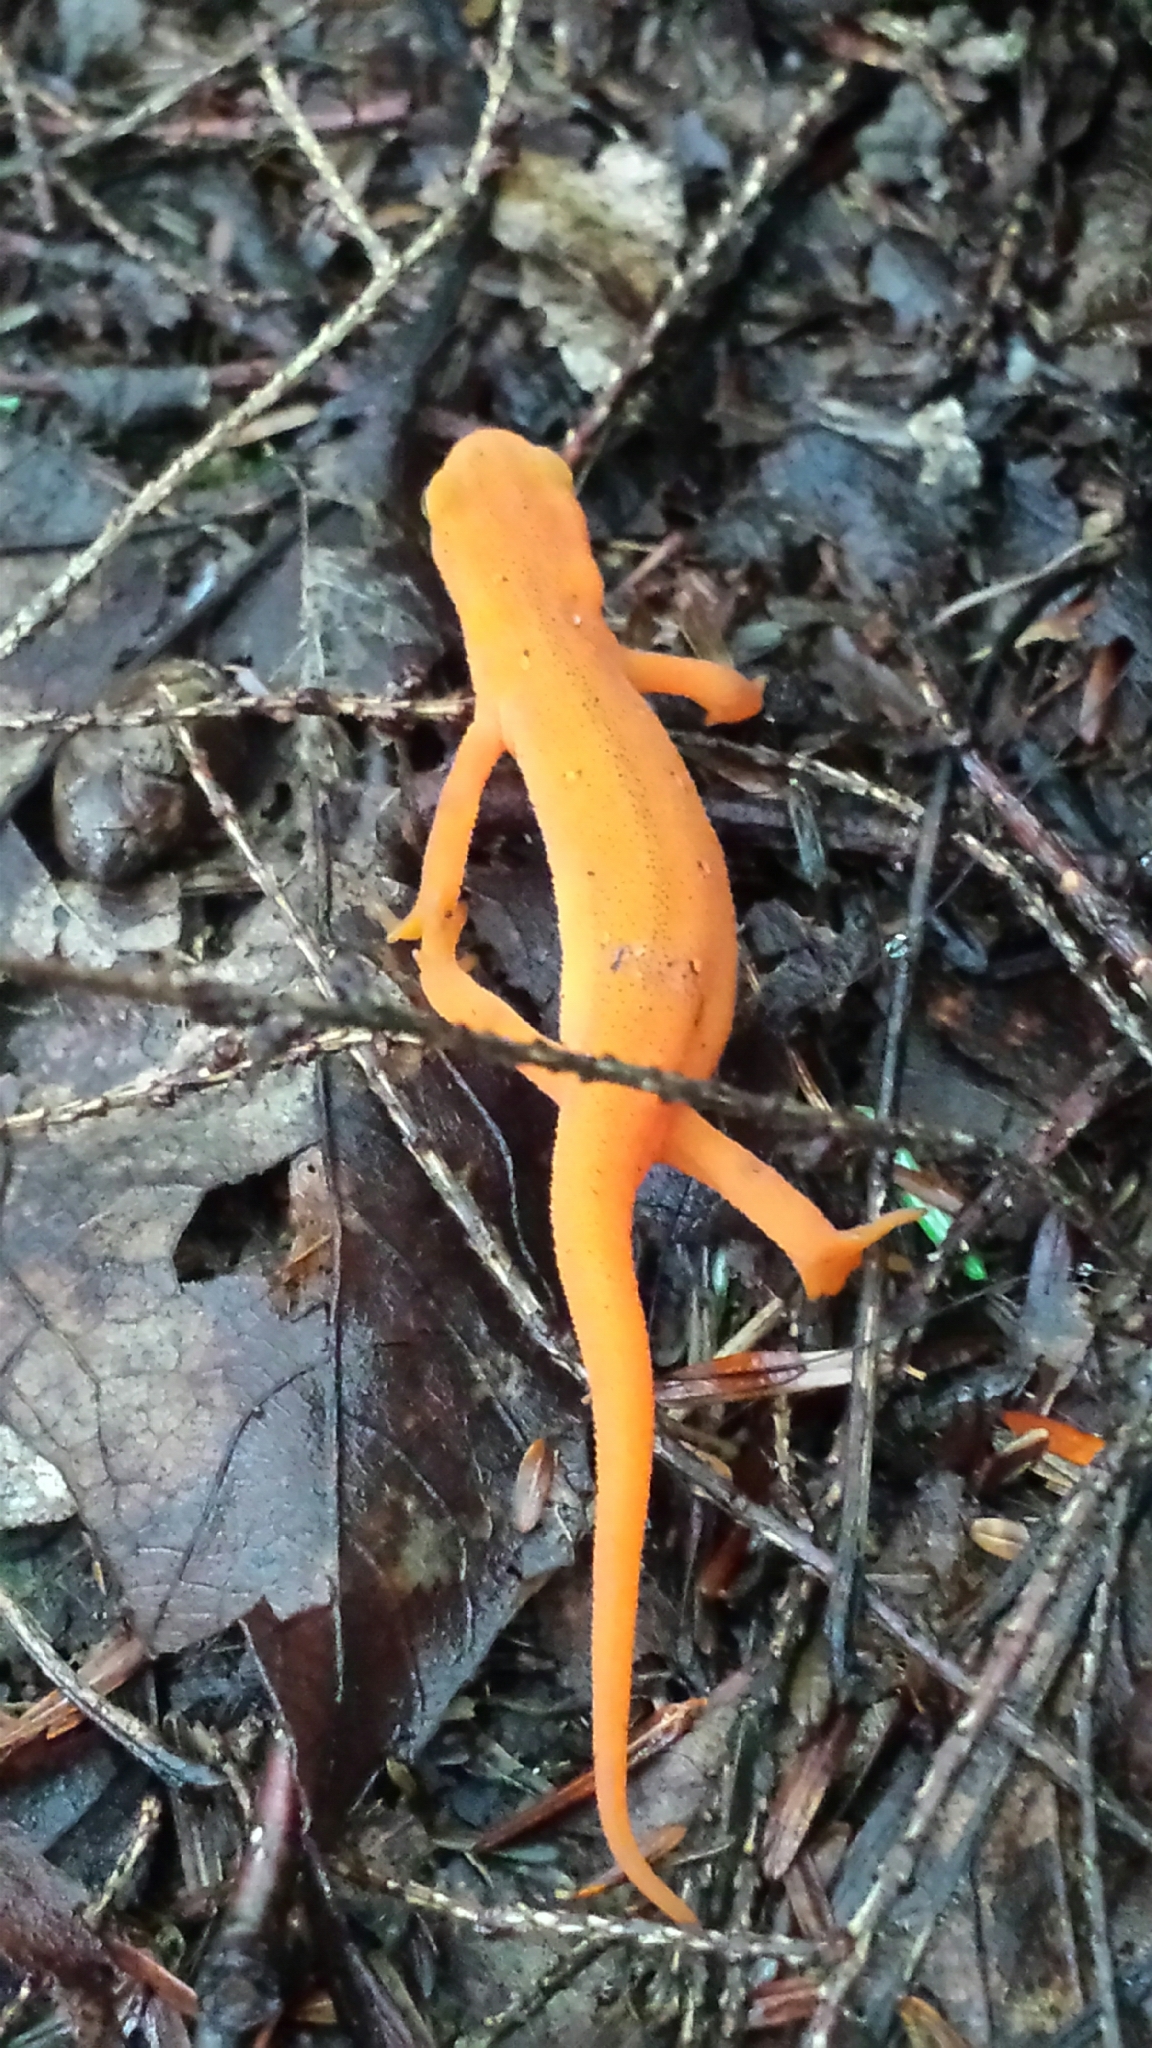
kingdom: Animalia
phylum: Chordata
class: Amphibia
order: Caudata
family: Salamandridae
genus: Notophthalmus
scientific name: Notophthalmus viridescens
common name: Eastern newt
